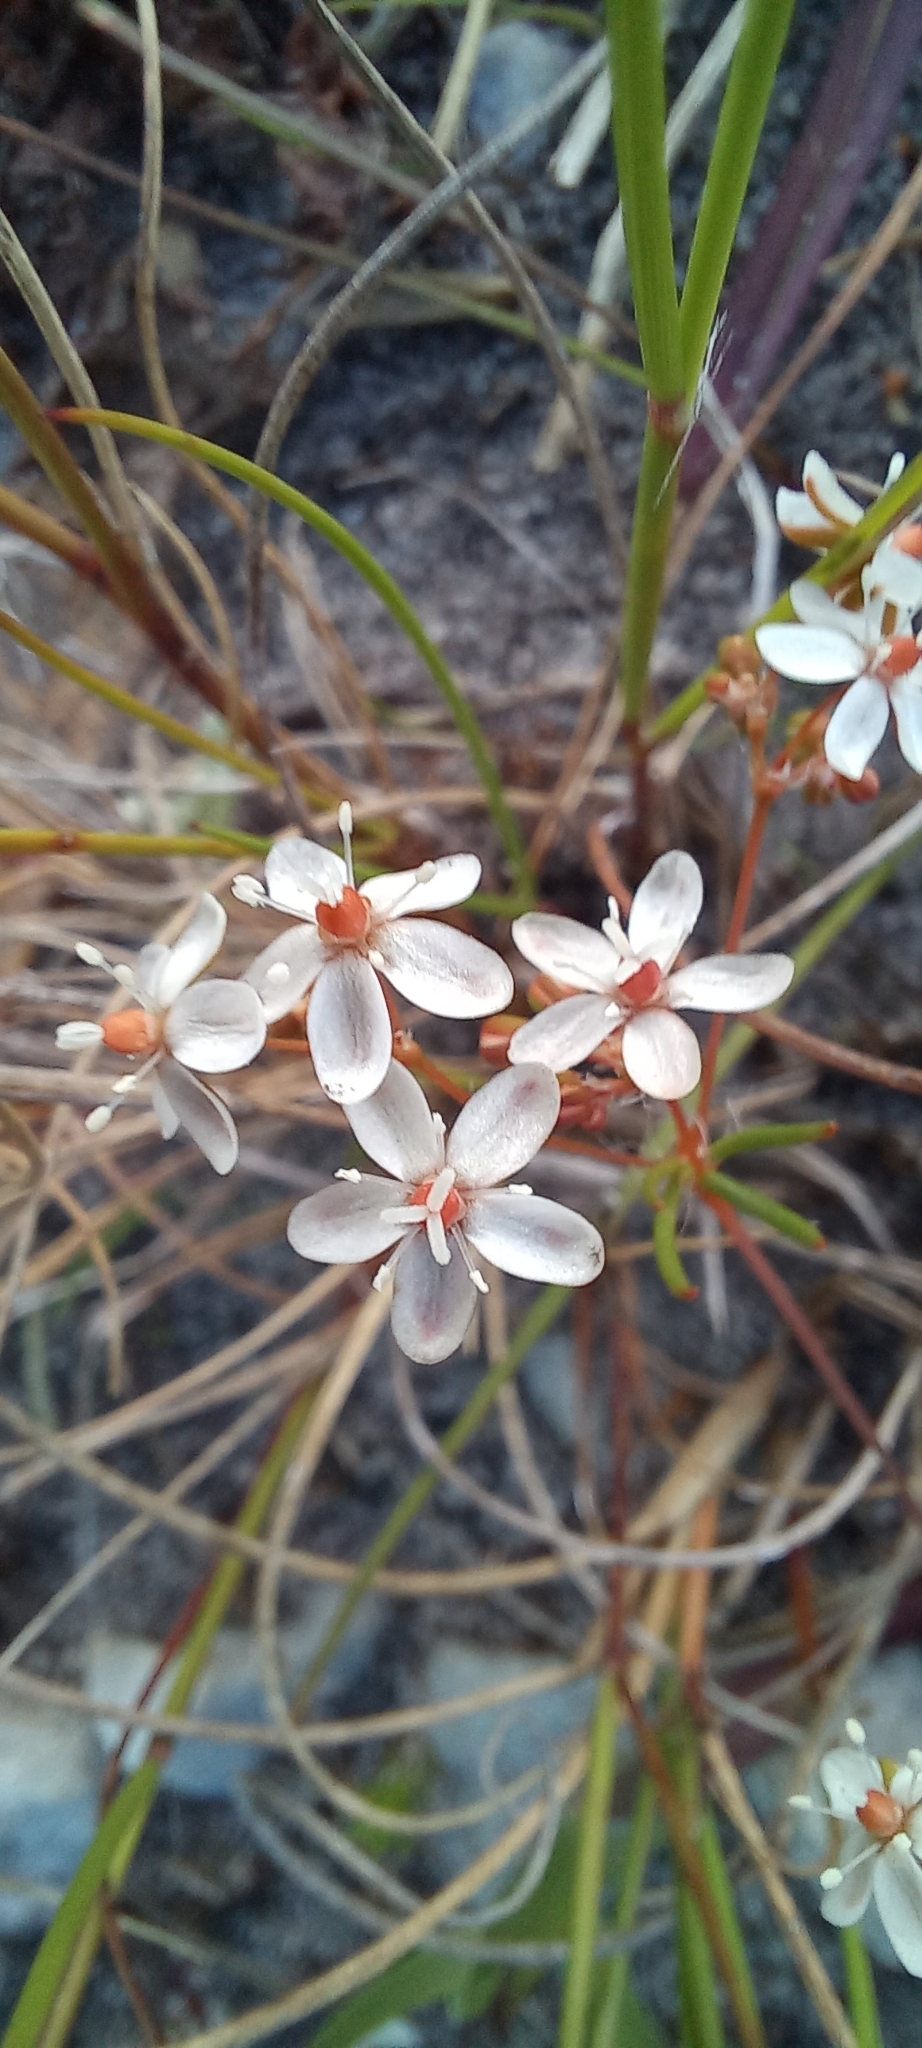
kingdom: Plantae
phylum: Tracheophyta
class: Magnoliopsida
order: Caryophyllales
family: Molluginaceae
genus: Pharnaceum
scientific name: Pharnaceum elongatum
